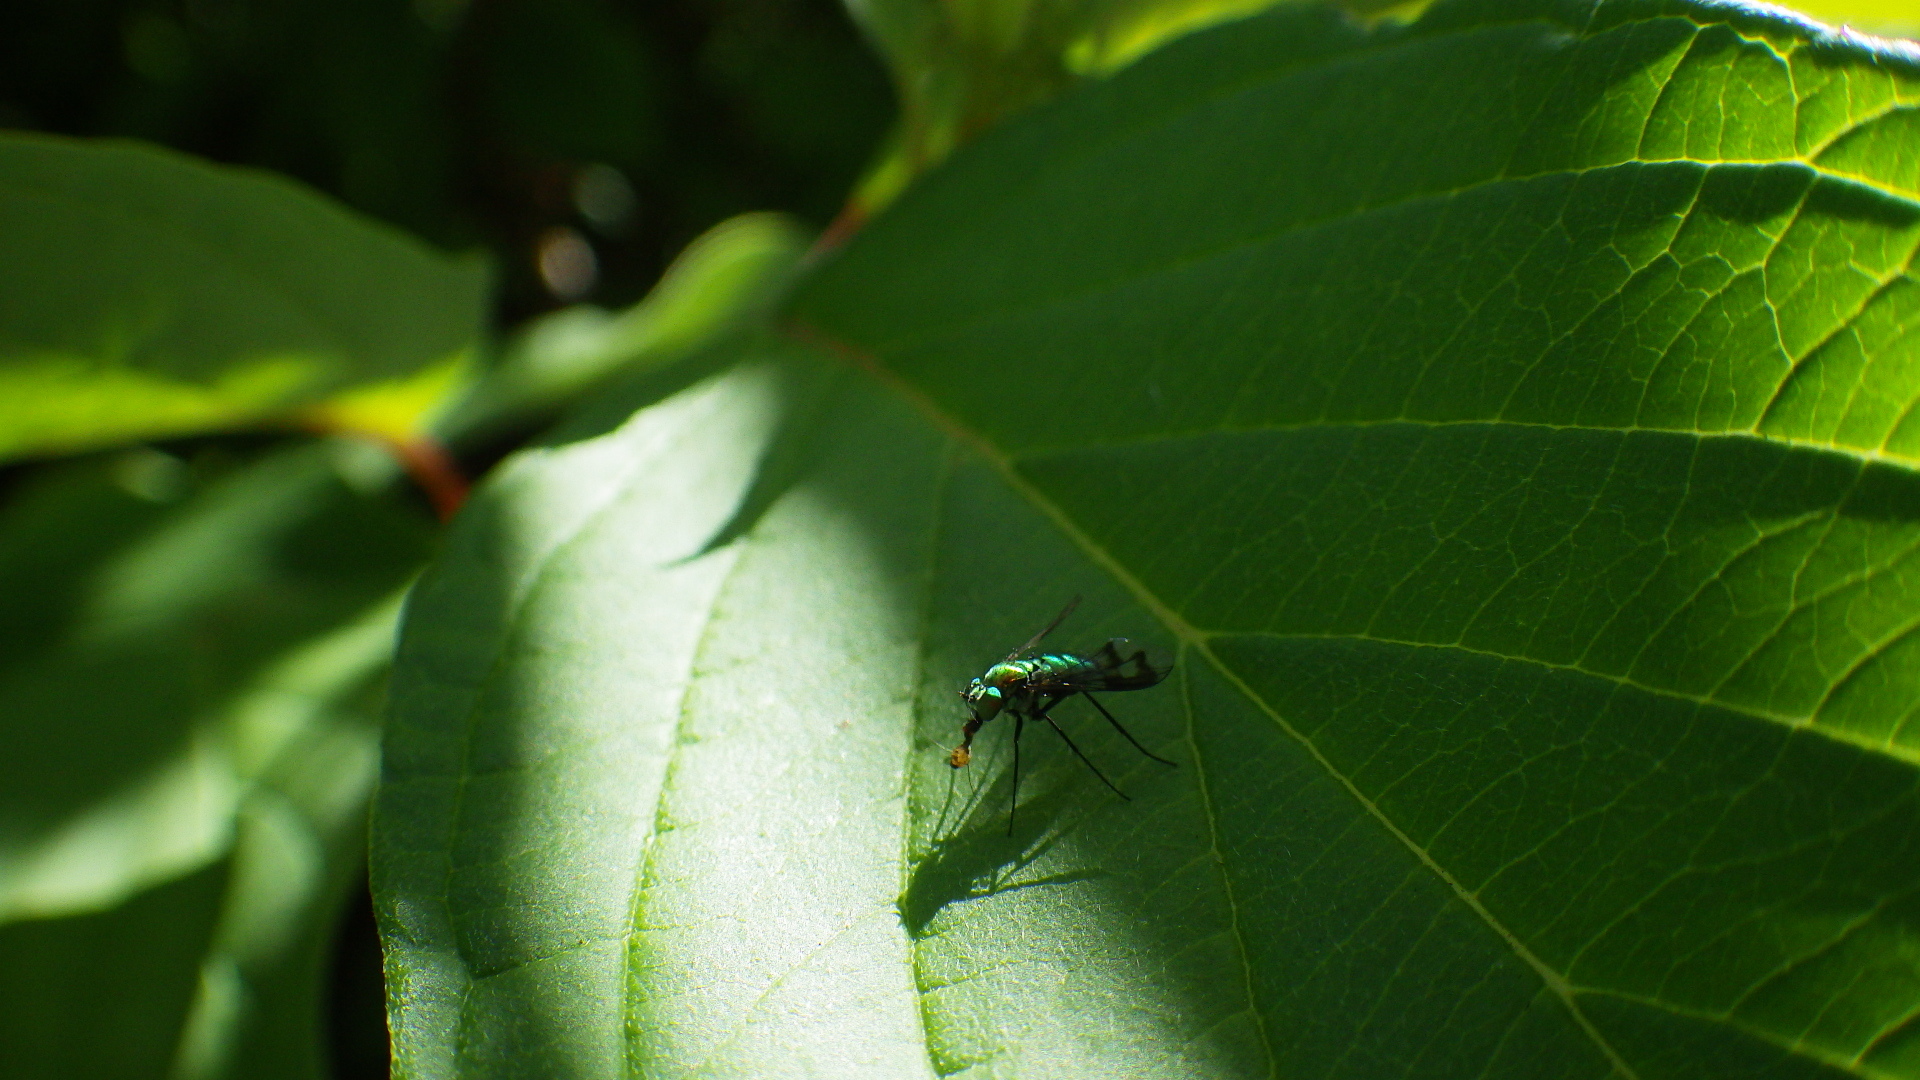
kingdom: Animalia
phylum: Arthropoda
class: Insecta
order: Diptera
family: Dolichopodidae
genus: Condylostylus
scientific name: Condylostylus occidentalis
